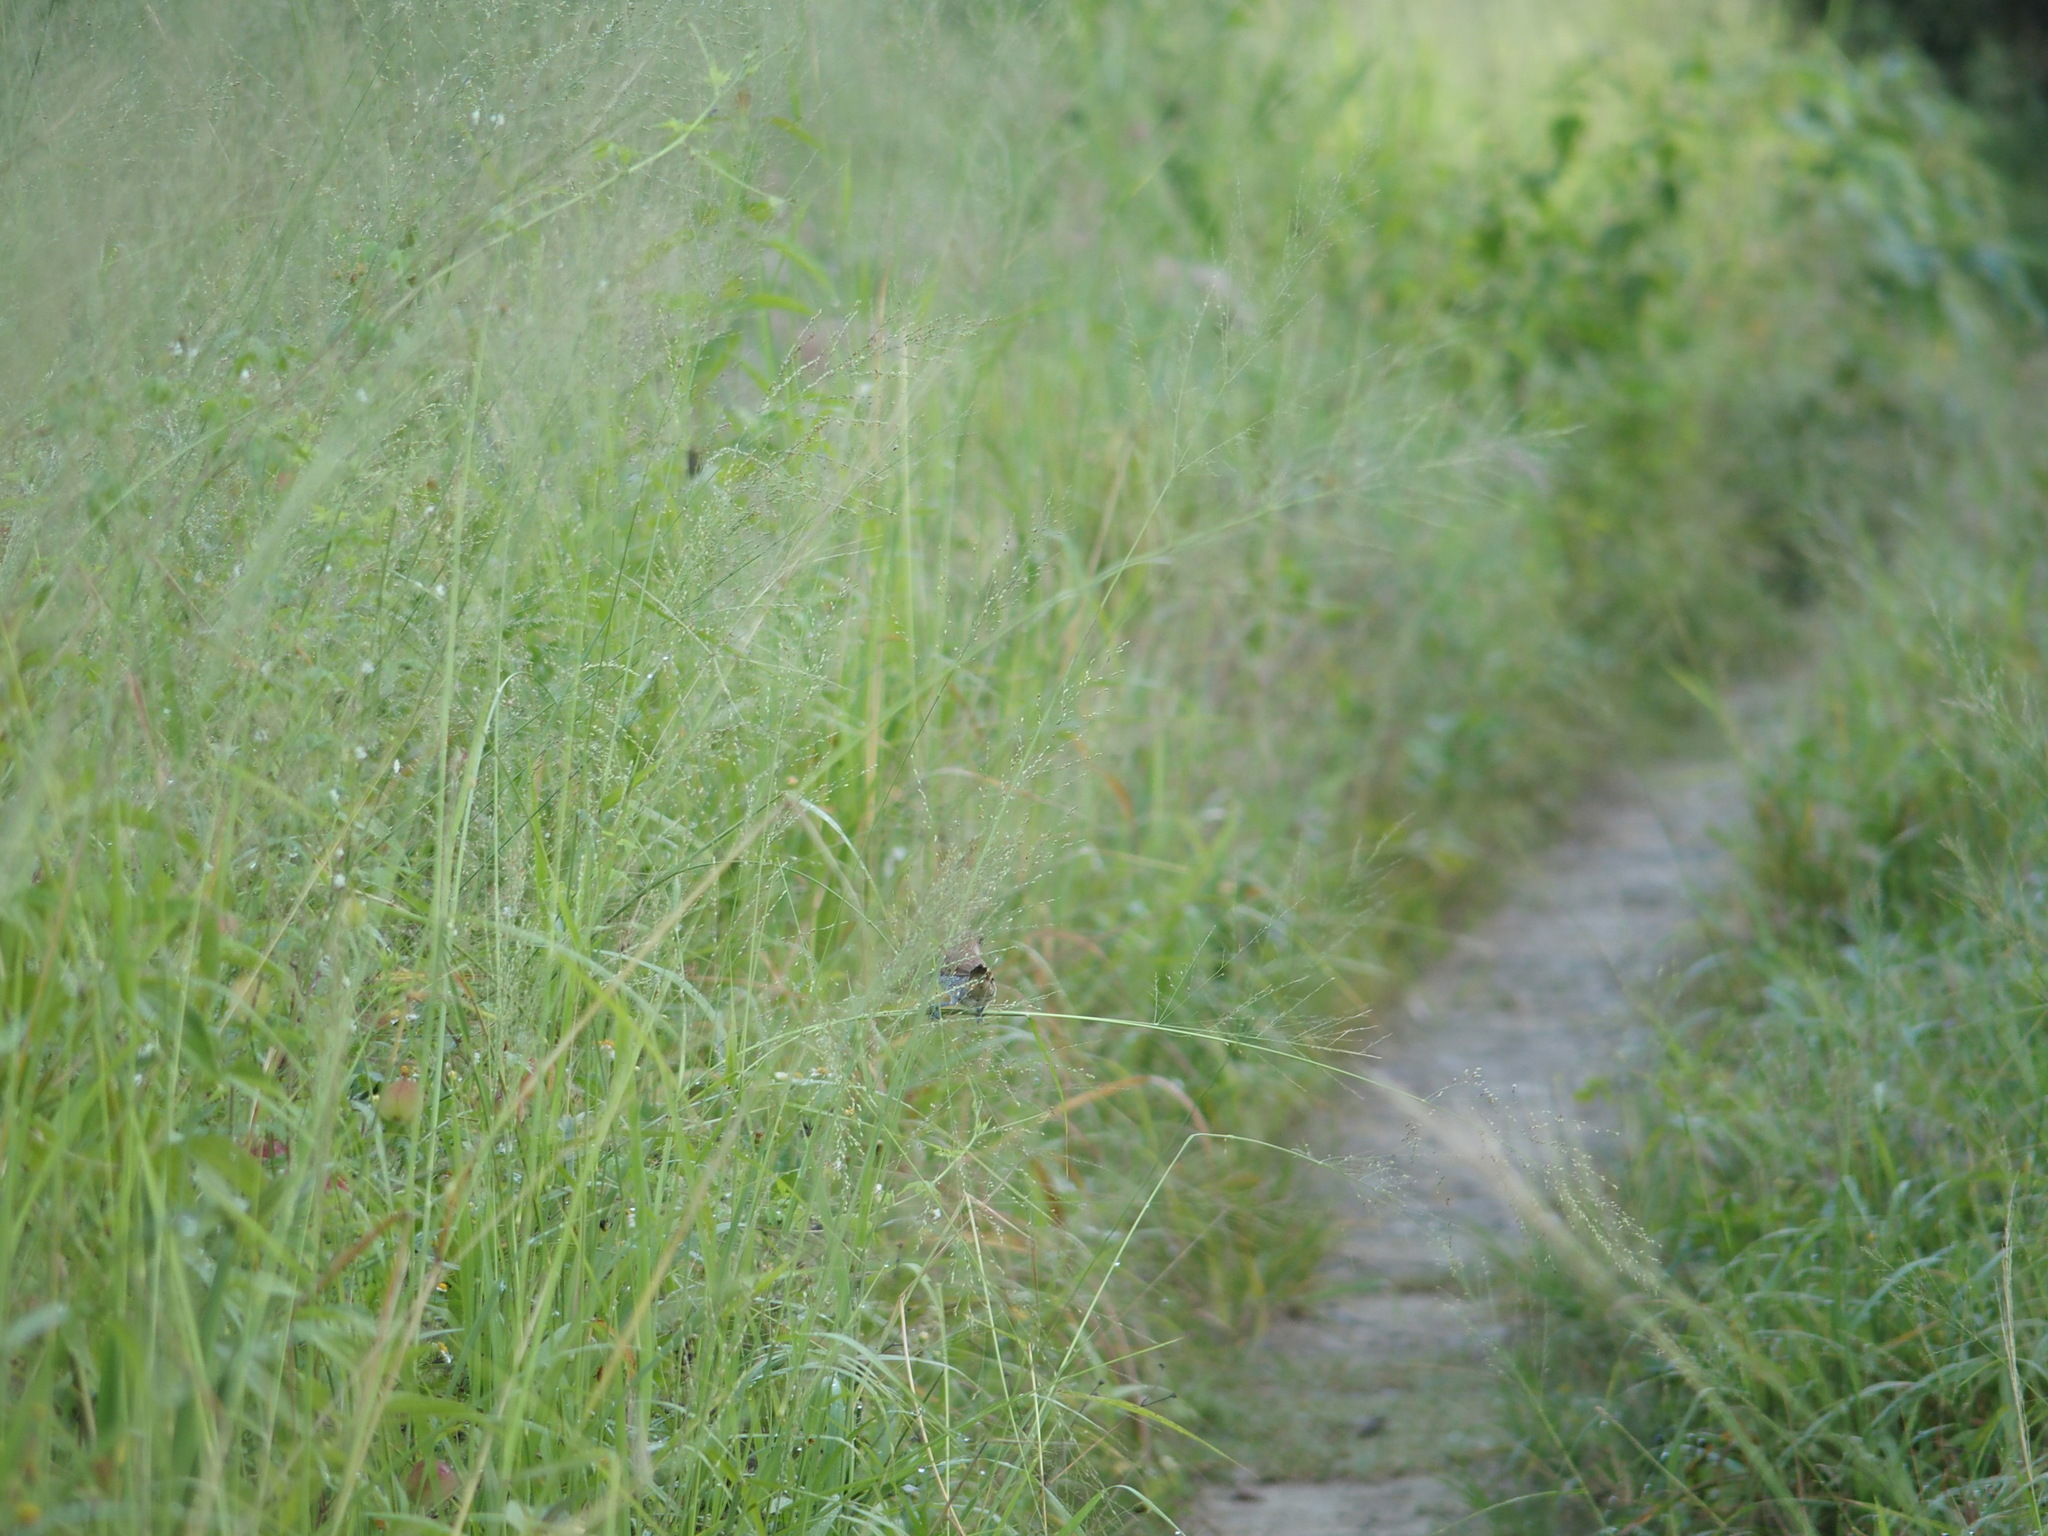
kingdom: Animalia
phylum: Chordata
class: Aves
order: Passeriformes
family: Estrildidae
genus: Lonchura
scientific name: Lonchura punctulata
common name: Scaly-breasted munia
